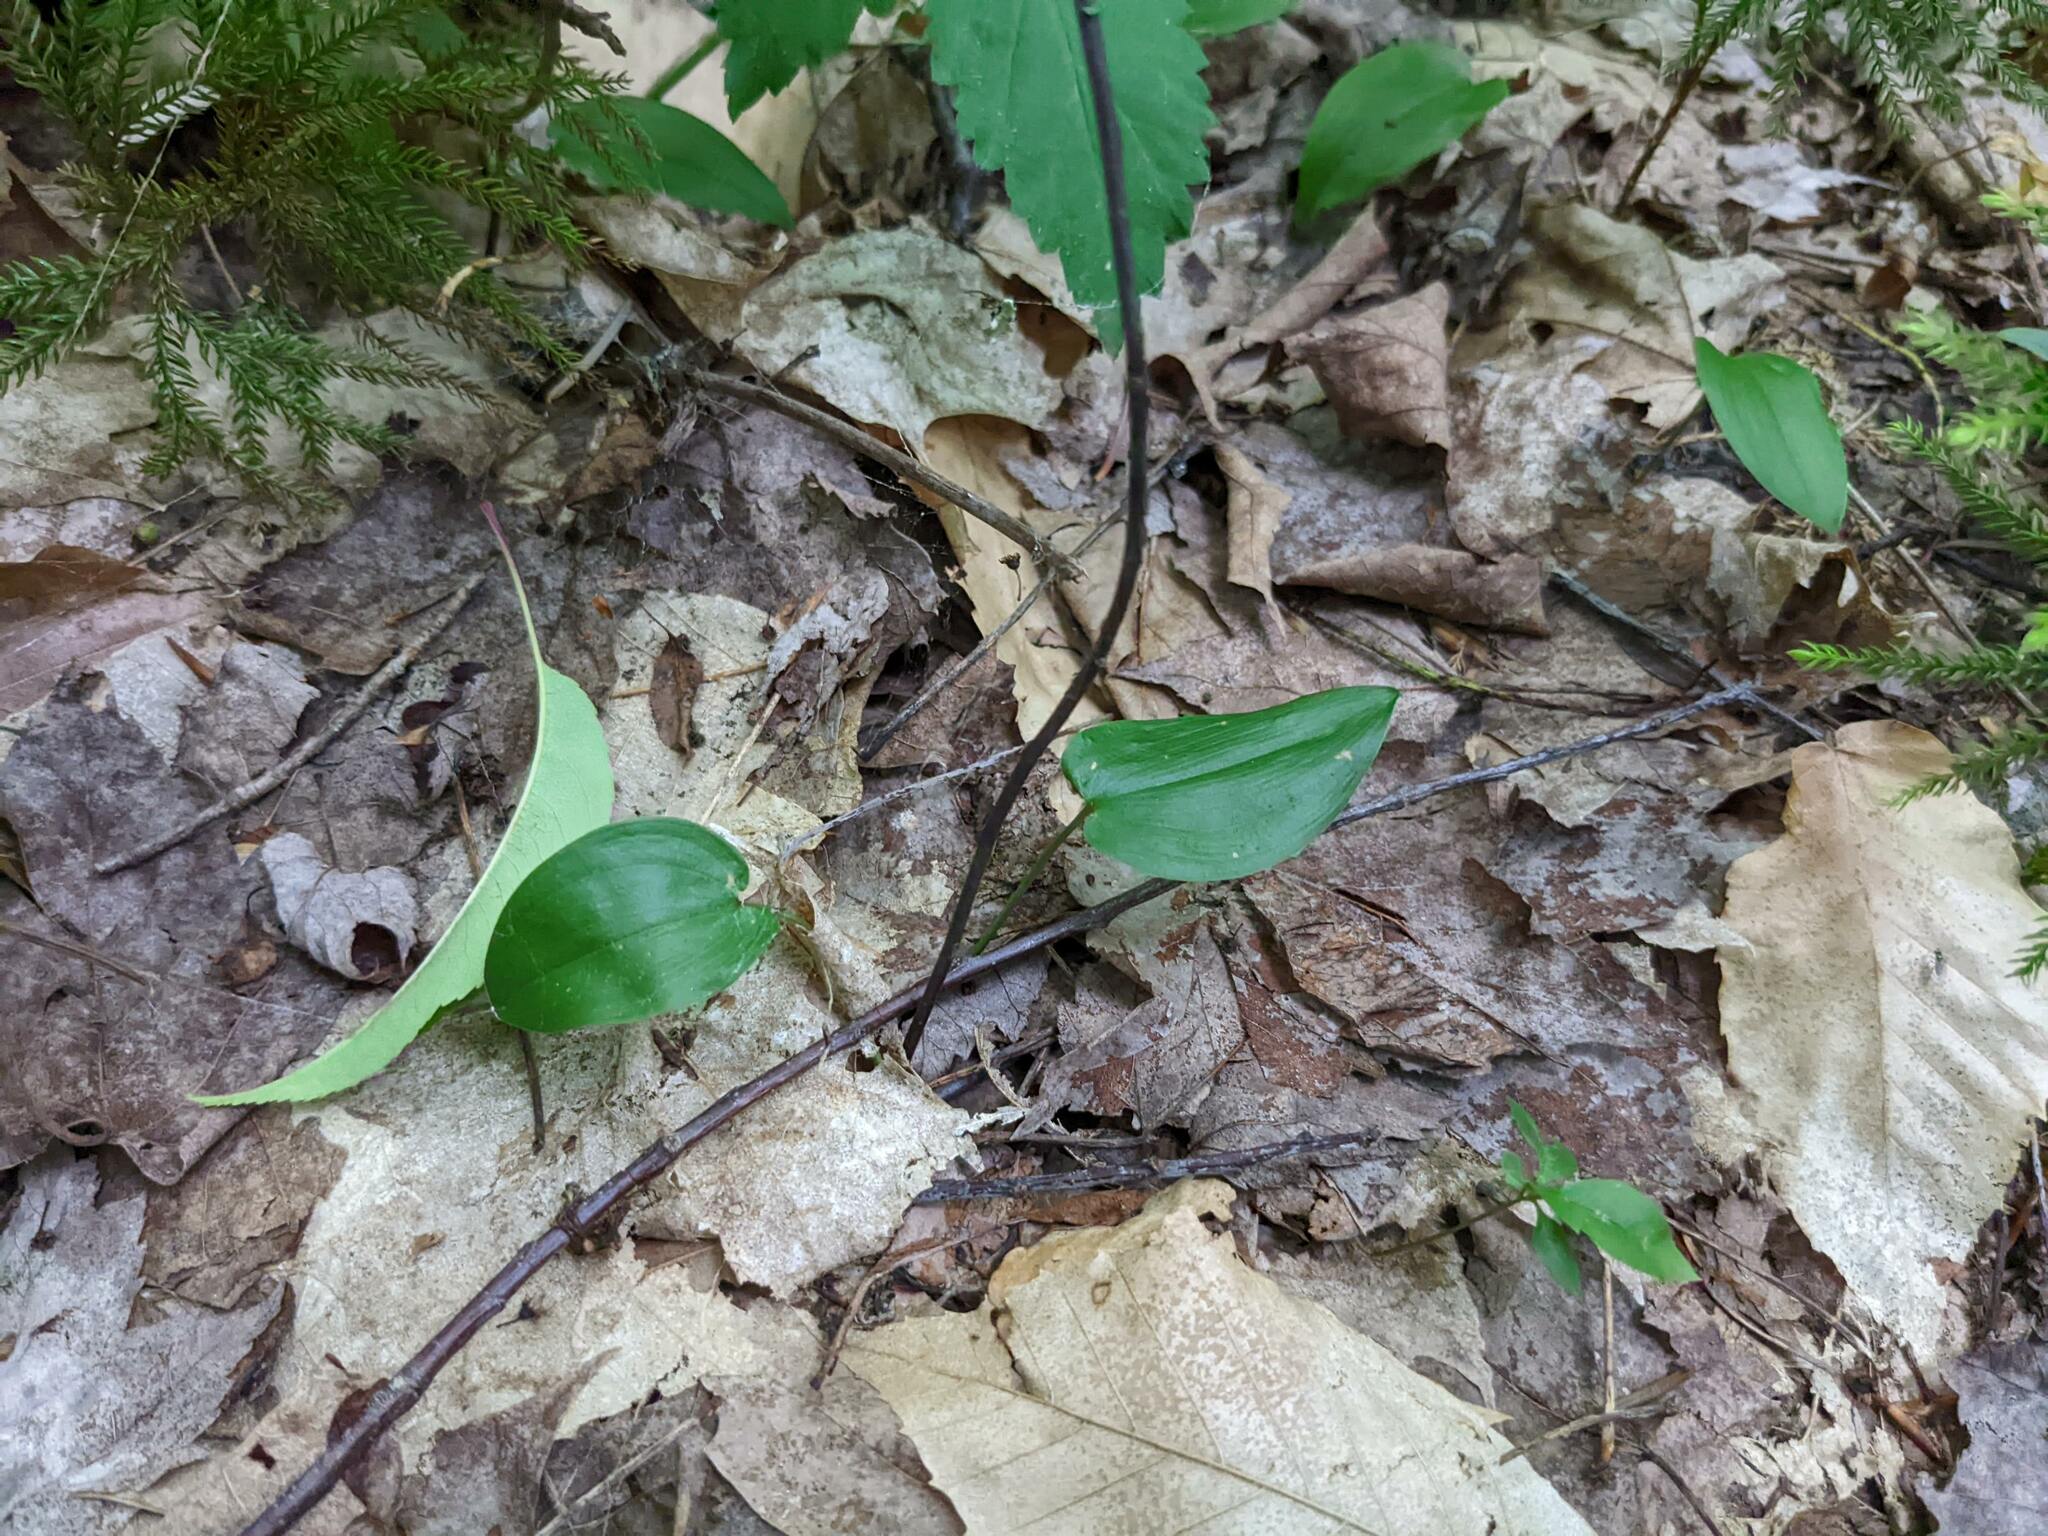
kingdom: Plantae
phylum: Tracheophyta
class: Liliopsida
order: Asparagales
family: Asparagaceae
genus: Maianthemum
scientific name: Maianthemum canadense
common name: False lily-of-the-valley
